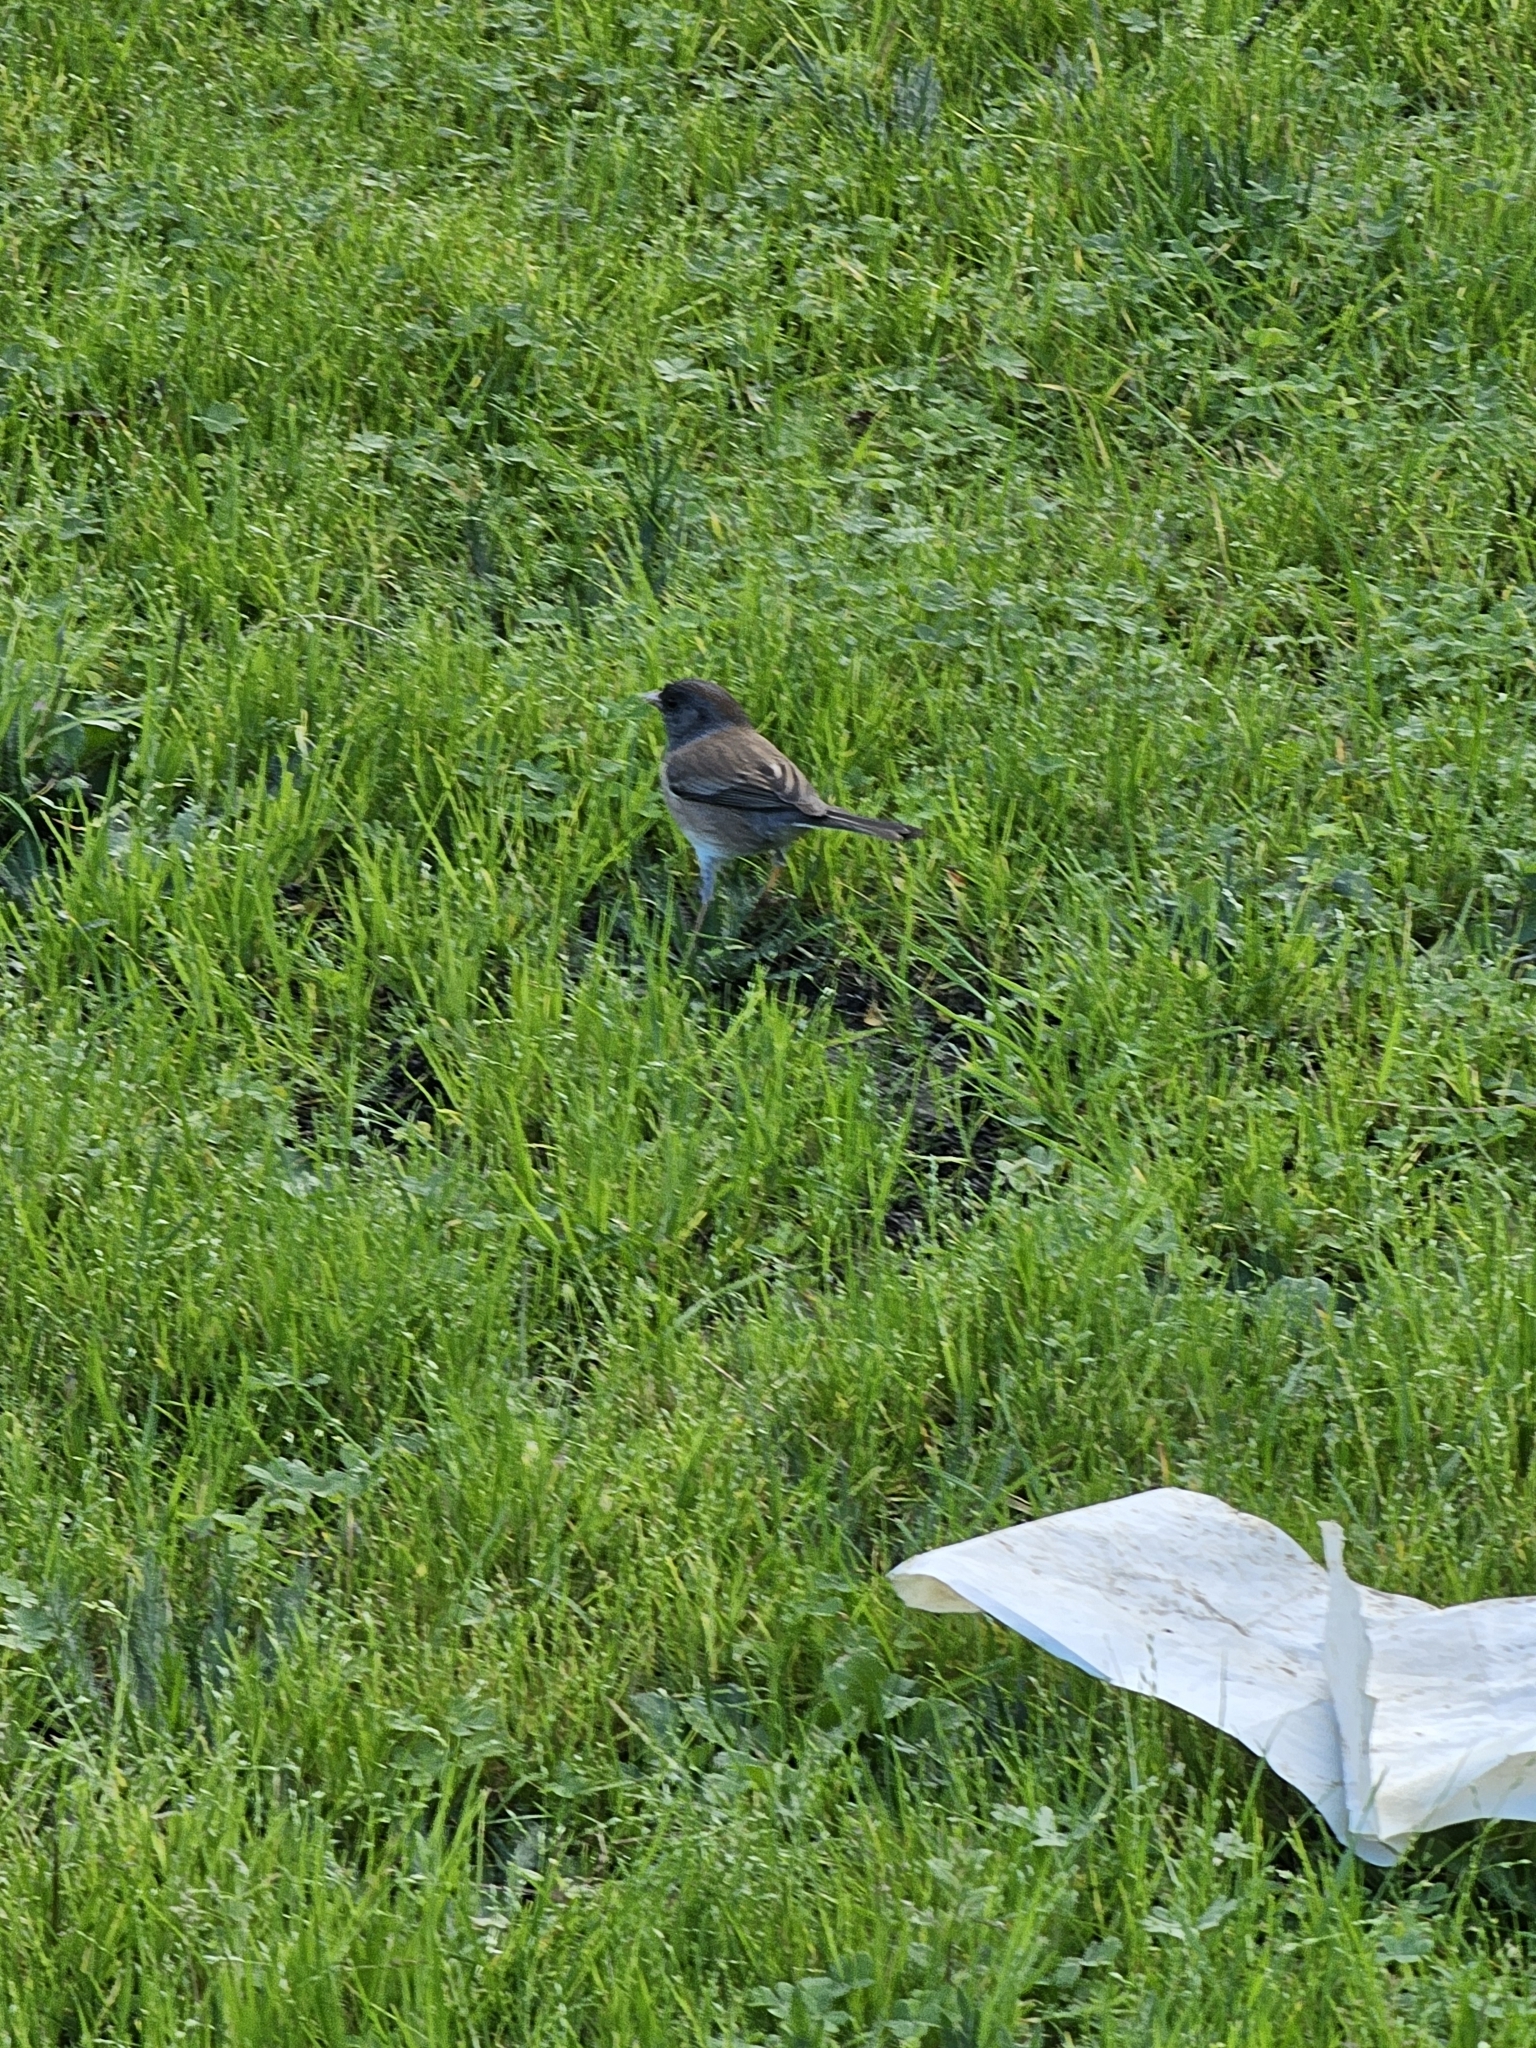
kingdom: Animalia
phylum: Chordata
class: Aves
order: Passeriformes
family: Passerellidae
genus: Junco
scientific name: Junco hyemalis
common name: Dark-eyed junco
